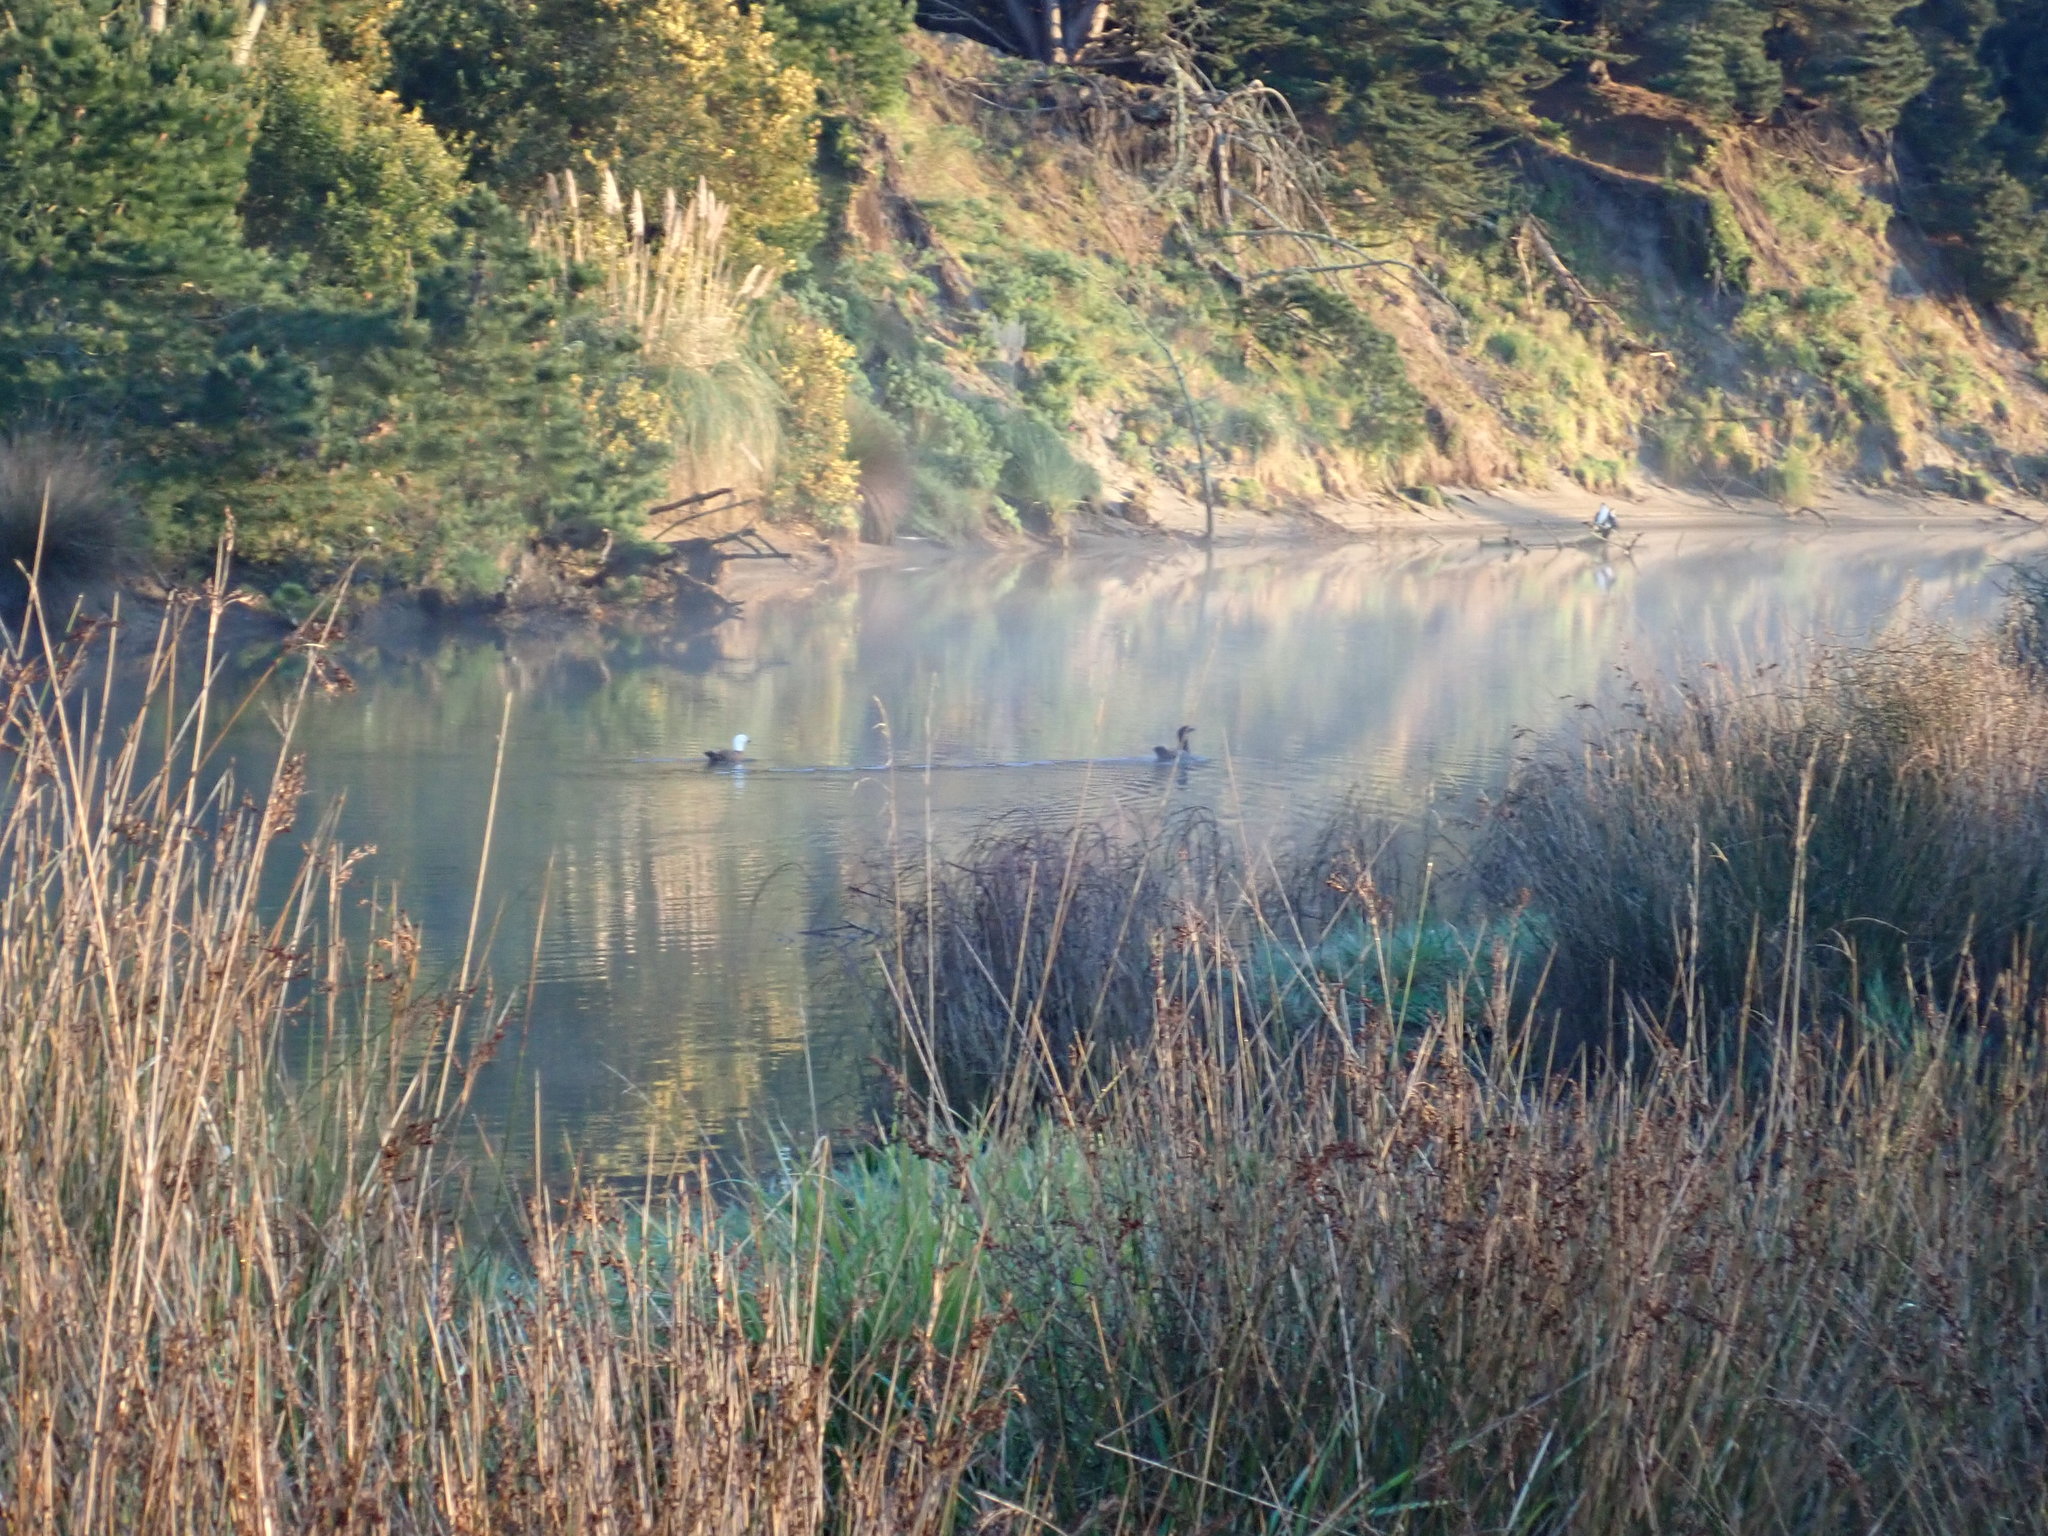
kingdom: Animalia
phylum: Chordata
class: Aves
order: Anseriformes
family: Anatidae
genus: Tadorna
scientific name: Tadorna variegata
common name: Paradise shelduck
